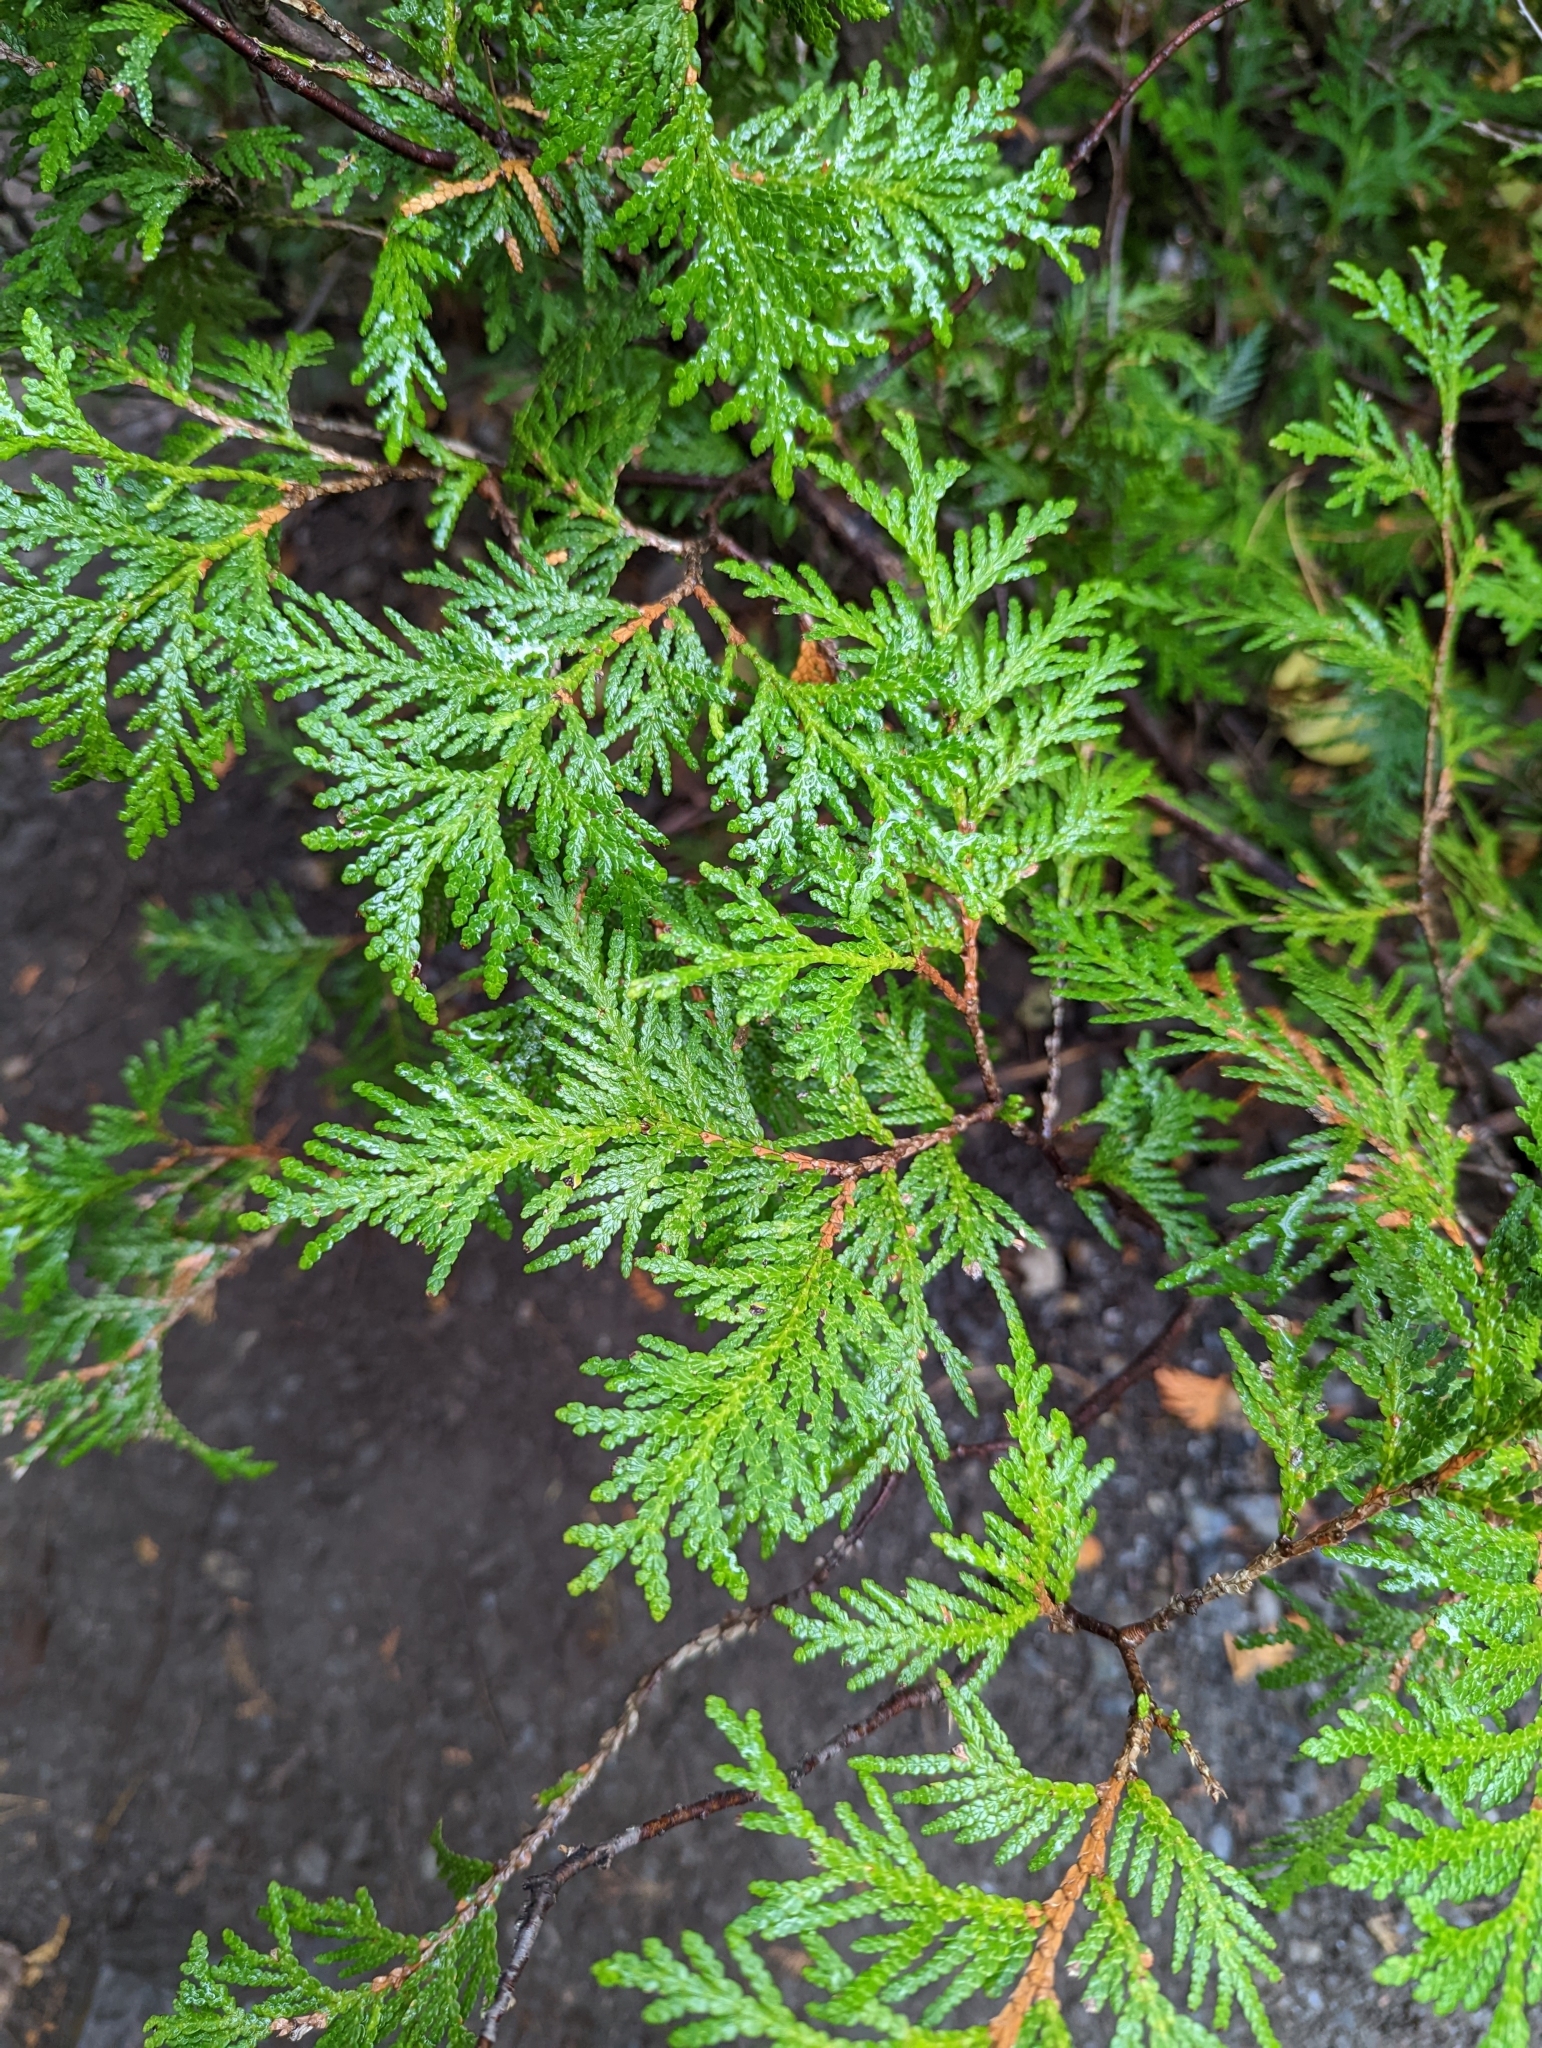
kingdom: Plantae
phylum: Tracheophyta
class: Pinopsida
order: Pinales
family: Cupressaceae
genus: Thuja
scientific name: Thuja occidentalis
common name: Northern white-cedar
